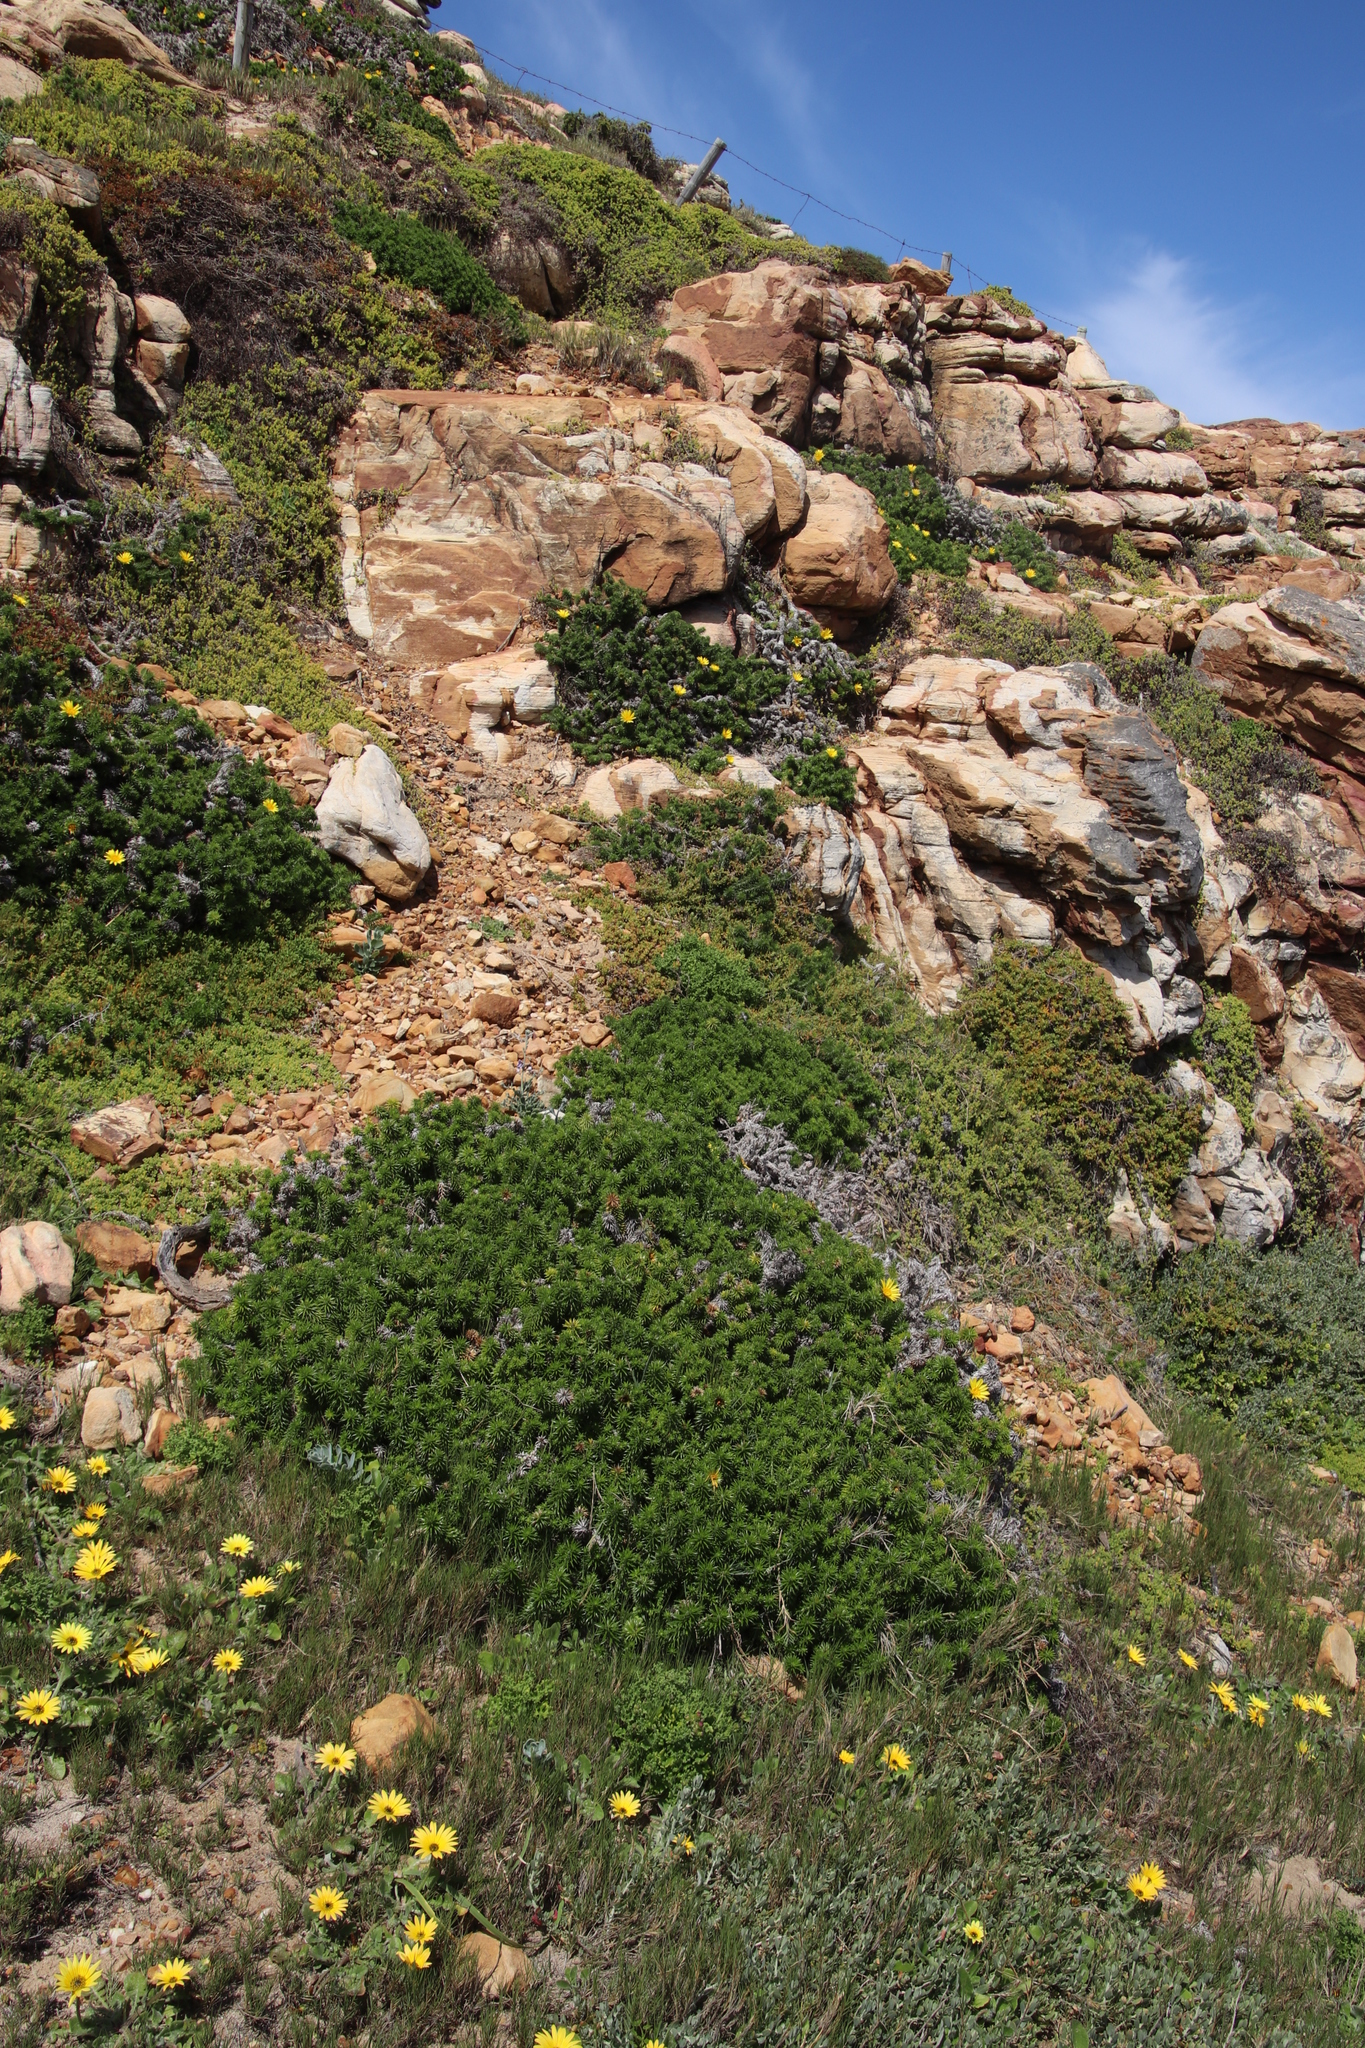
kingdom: Plantae
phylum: Tracheophyta
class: Magnoliopsida
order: Asterales
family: Asteraceae
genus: Cullumia
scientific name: Cullumia squarrosa
